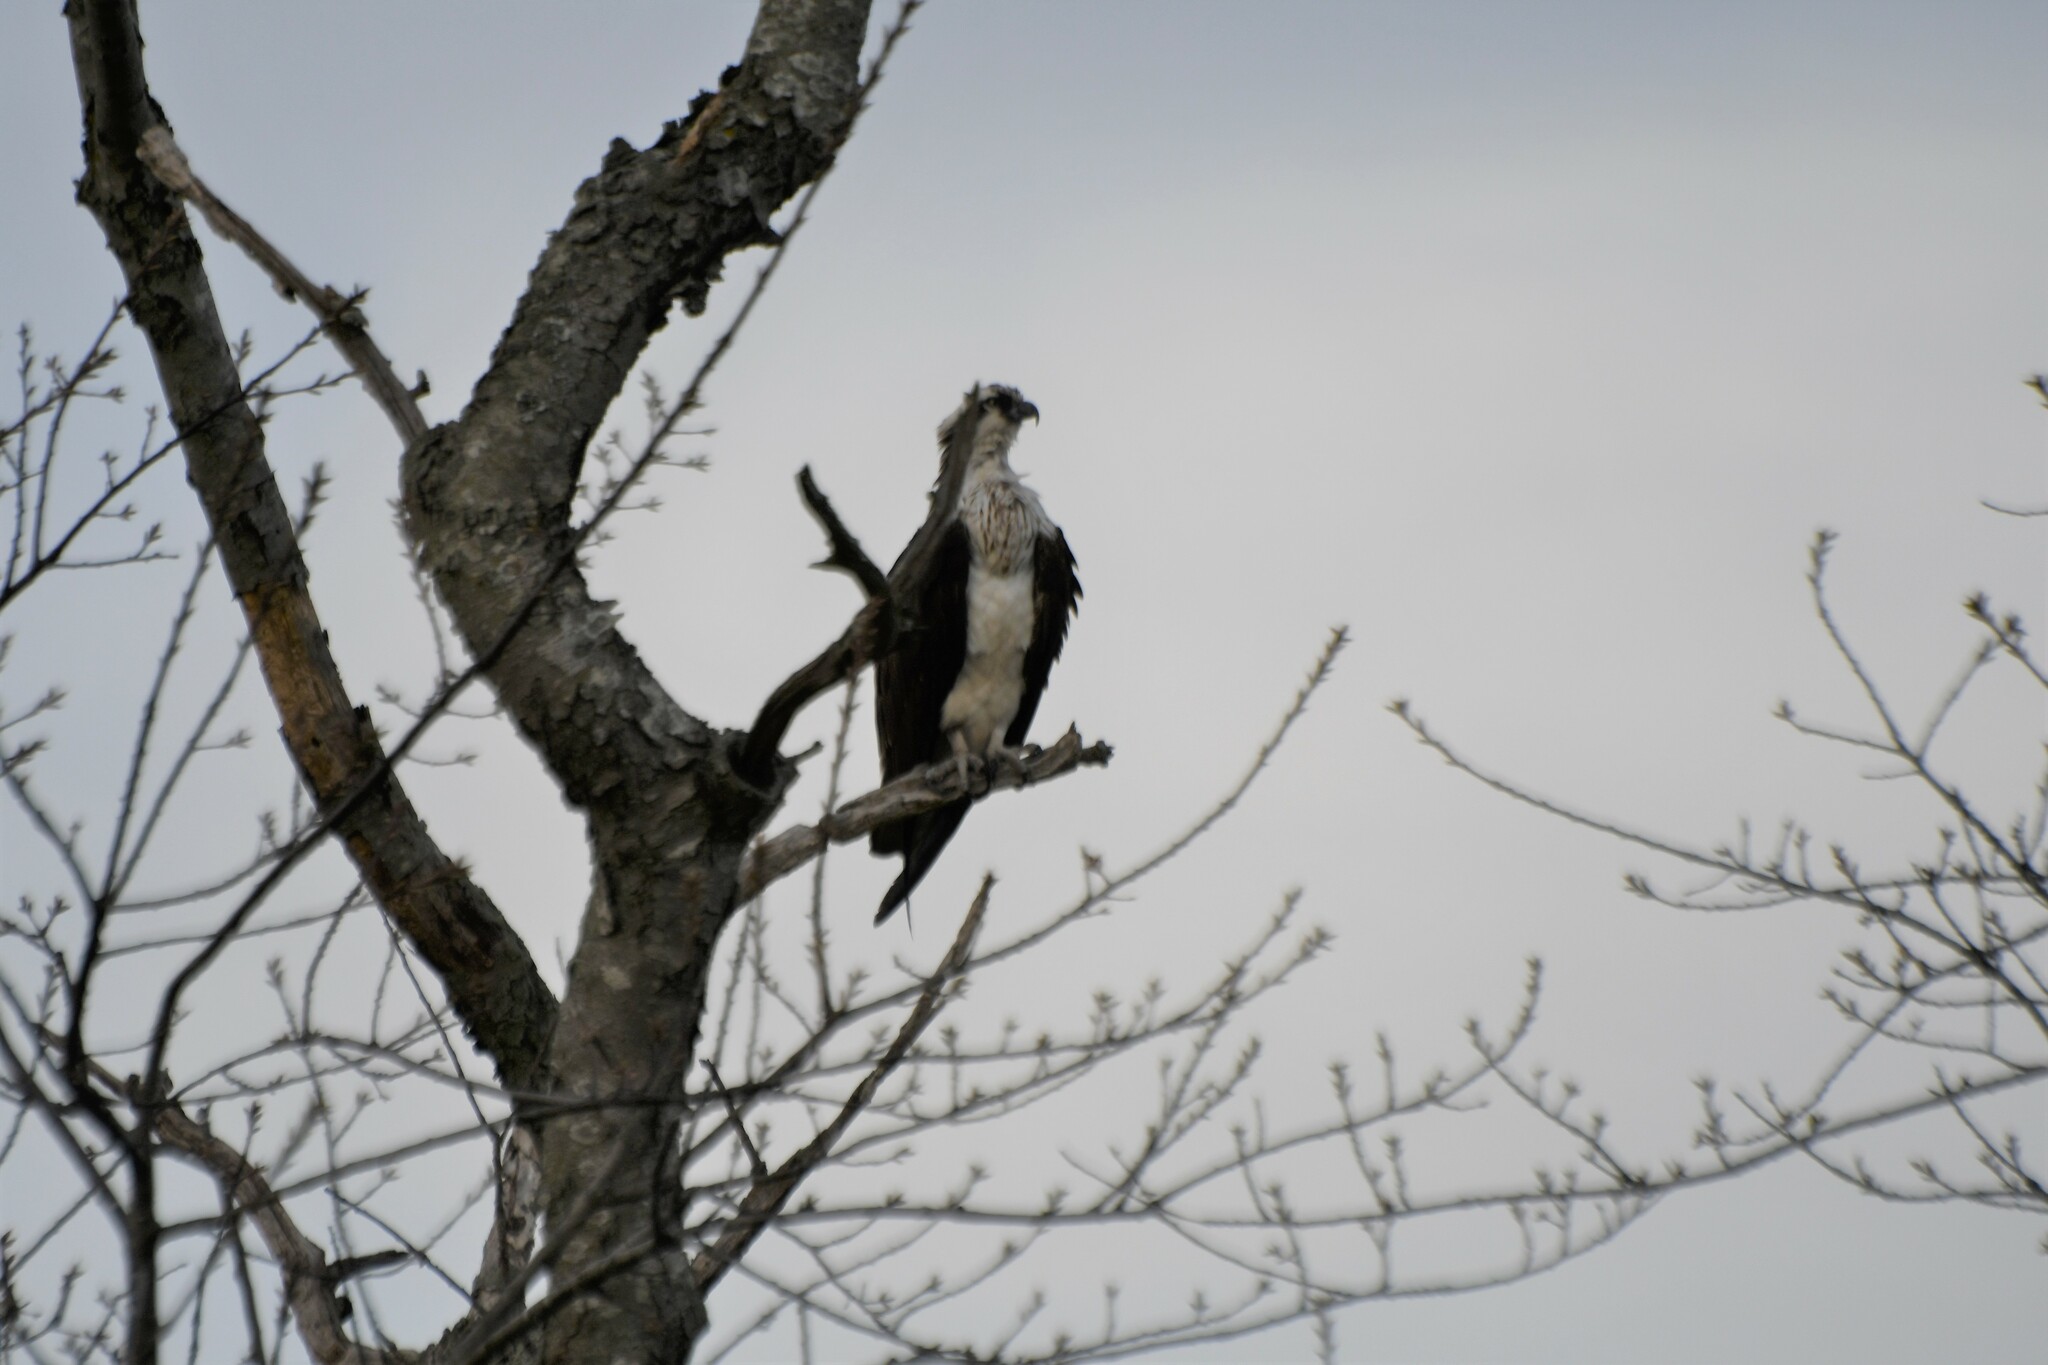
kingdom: Animalia
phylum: Chordata
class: Aves
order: Accipitriformes
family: Pandionidae
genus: Pandion
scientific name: Pandion haliaetus
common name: Osprey
